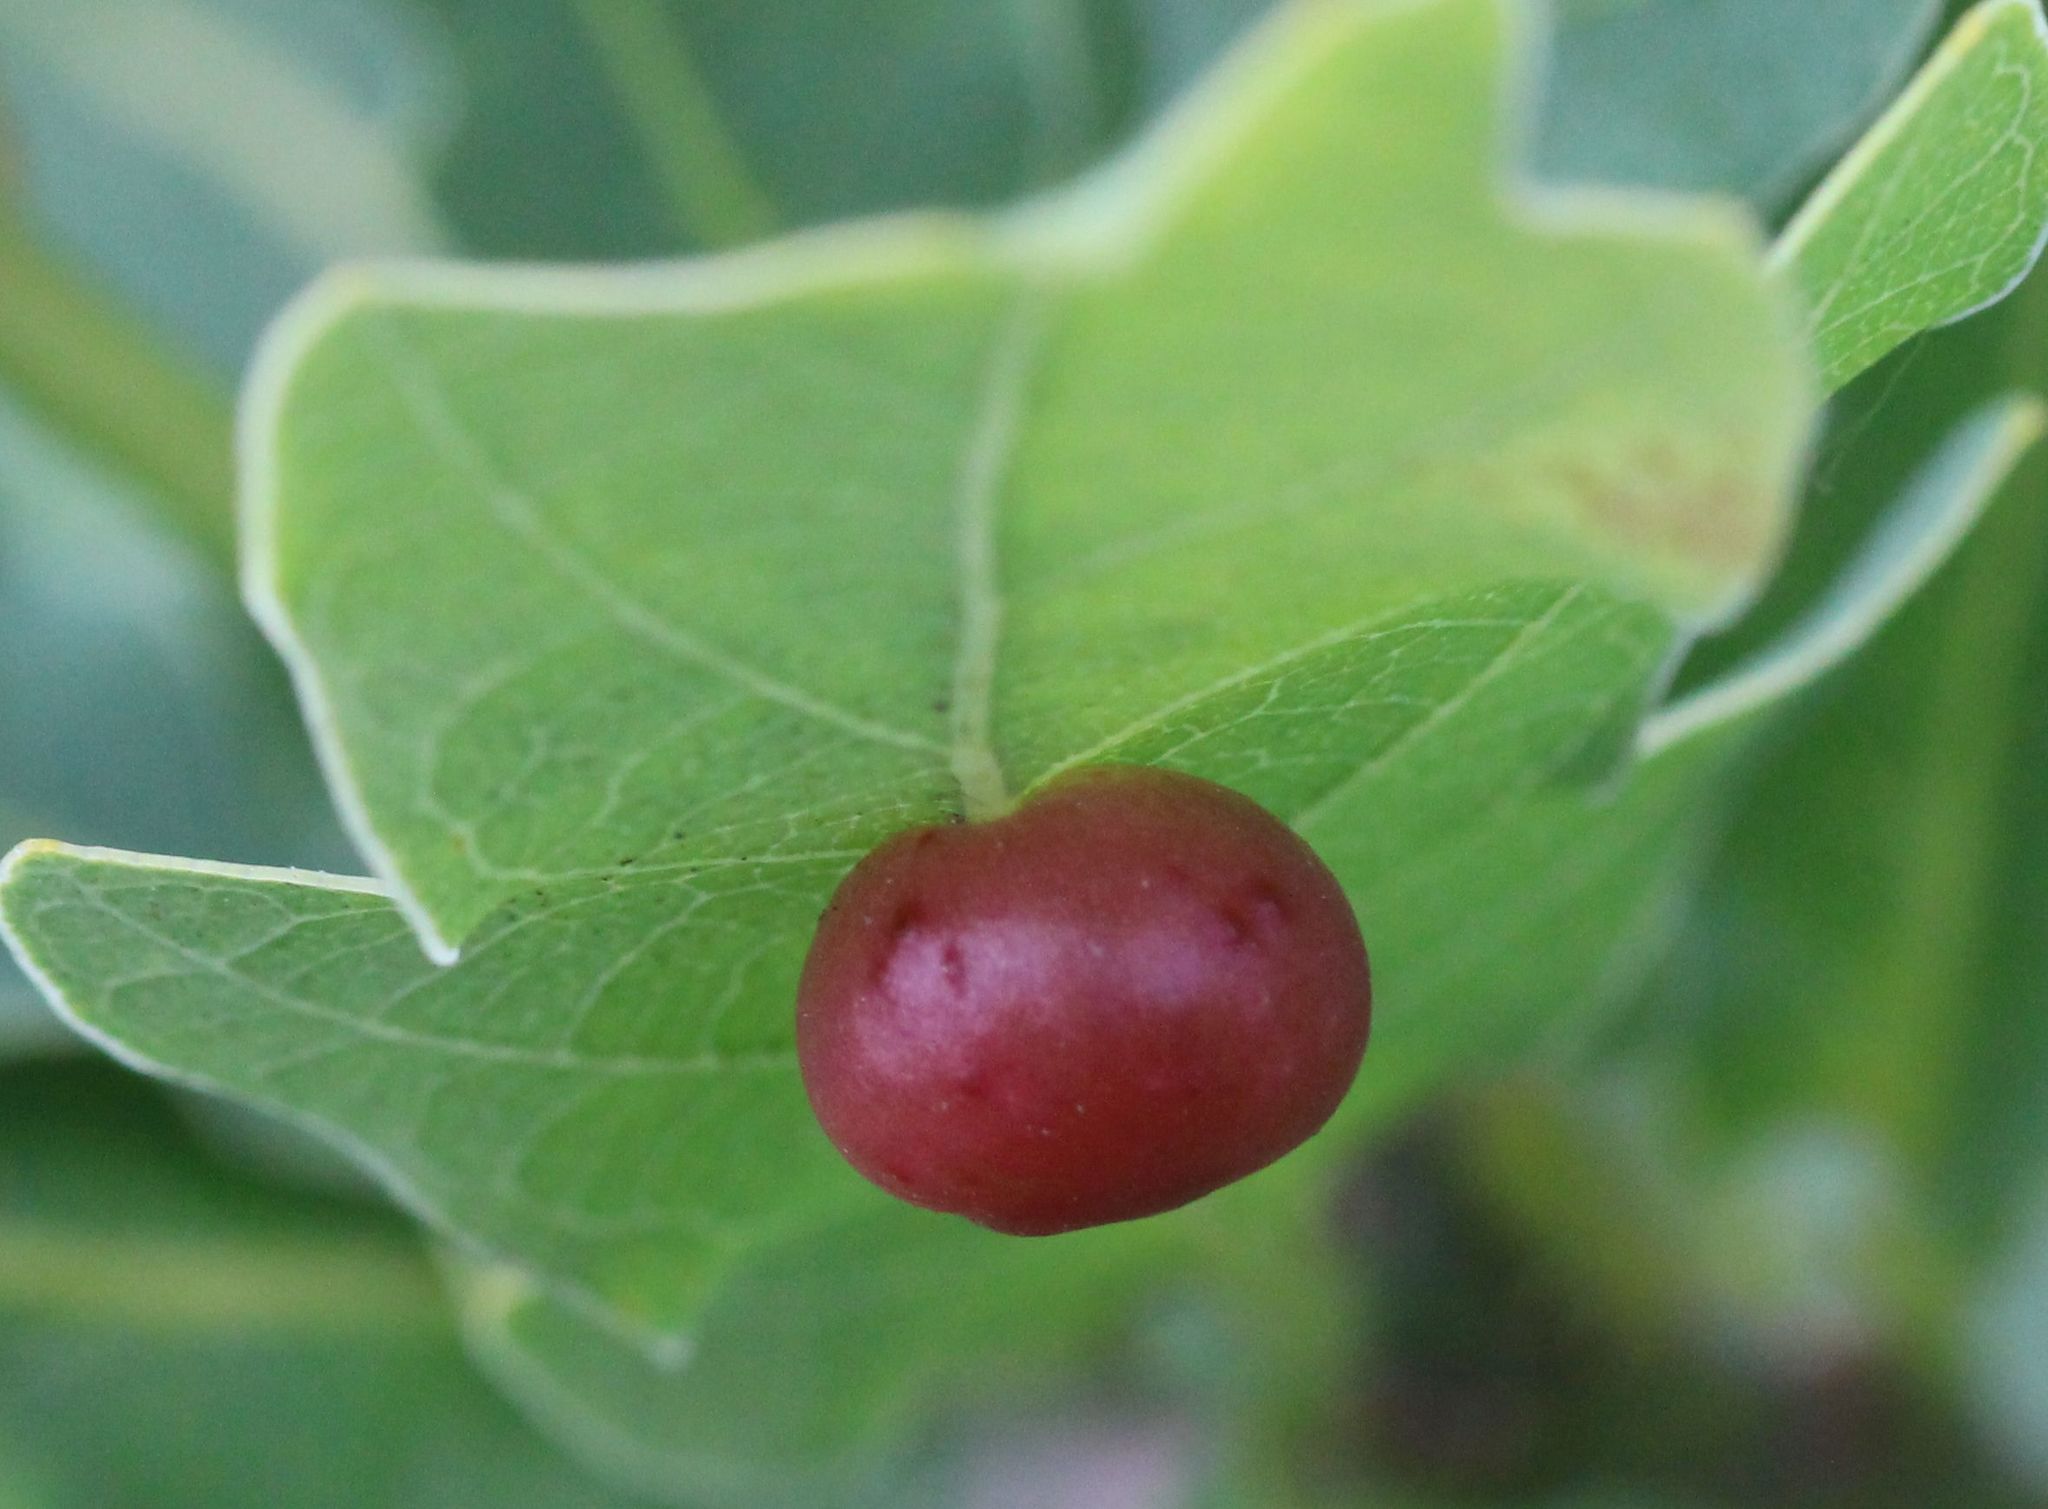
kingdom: Animalia
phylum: Arthropoda
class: Insecta
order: Hymenoptera
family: Cynipidae
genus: Cynips
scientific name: Cynips divisa
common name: Red currant gall
